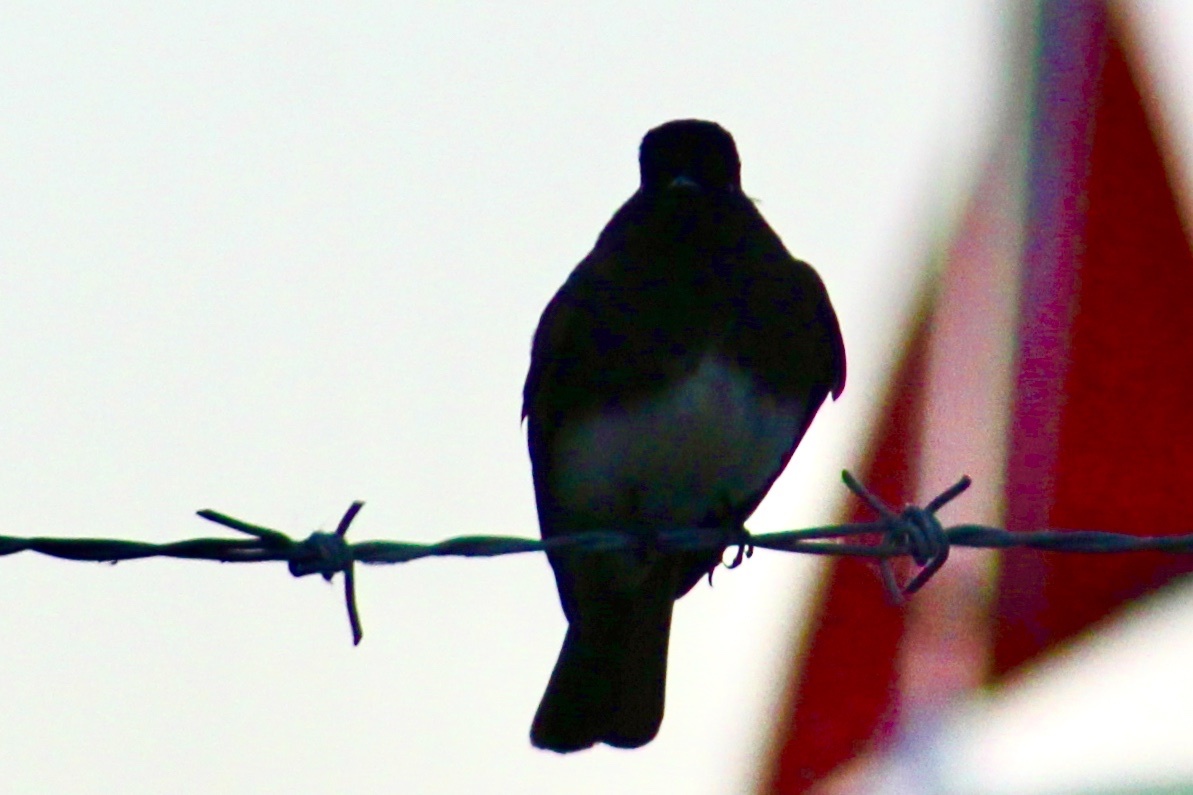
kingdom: Animalia
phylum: Chordata
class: Aves
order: Passeriformes
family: Tyrannidae
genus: Sayornis
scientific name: Sayornis nigricans
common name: Black phoebe
